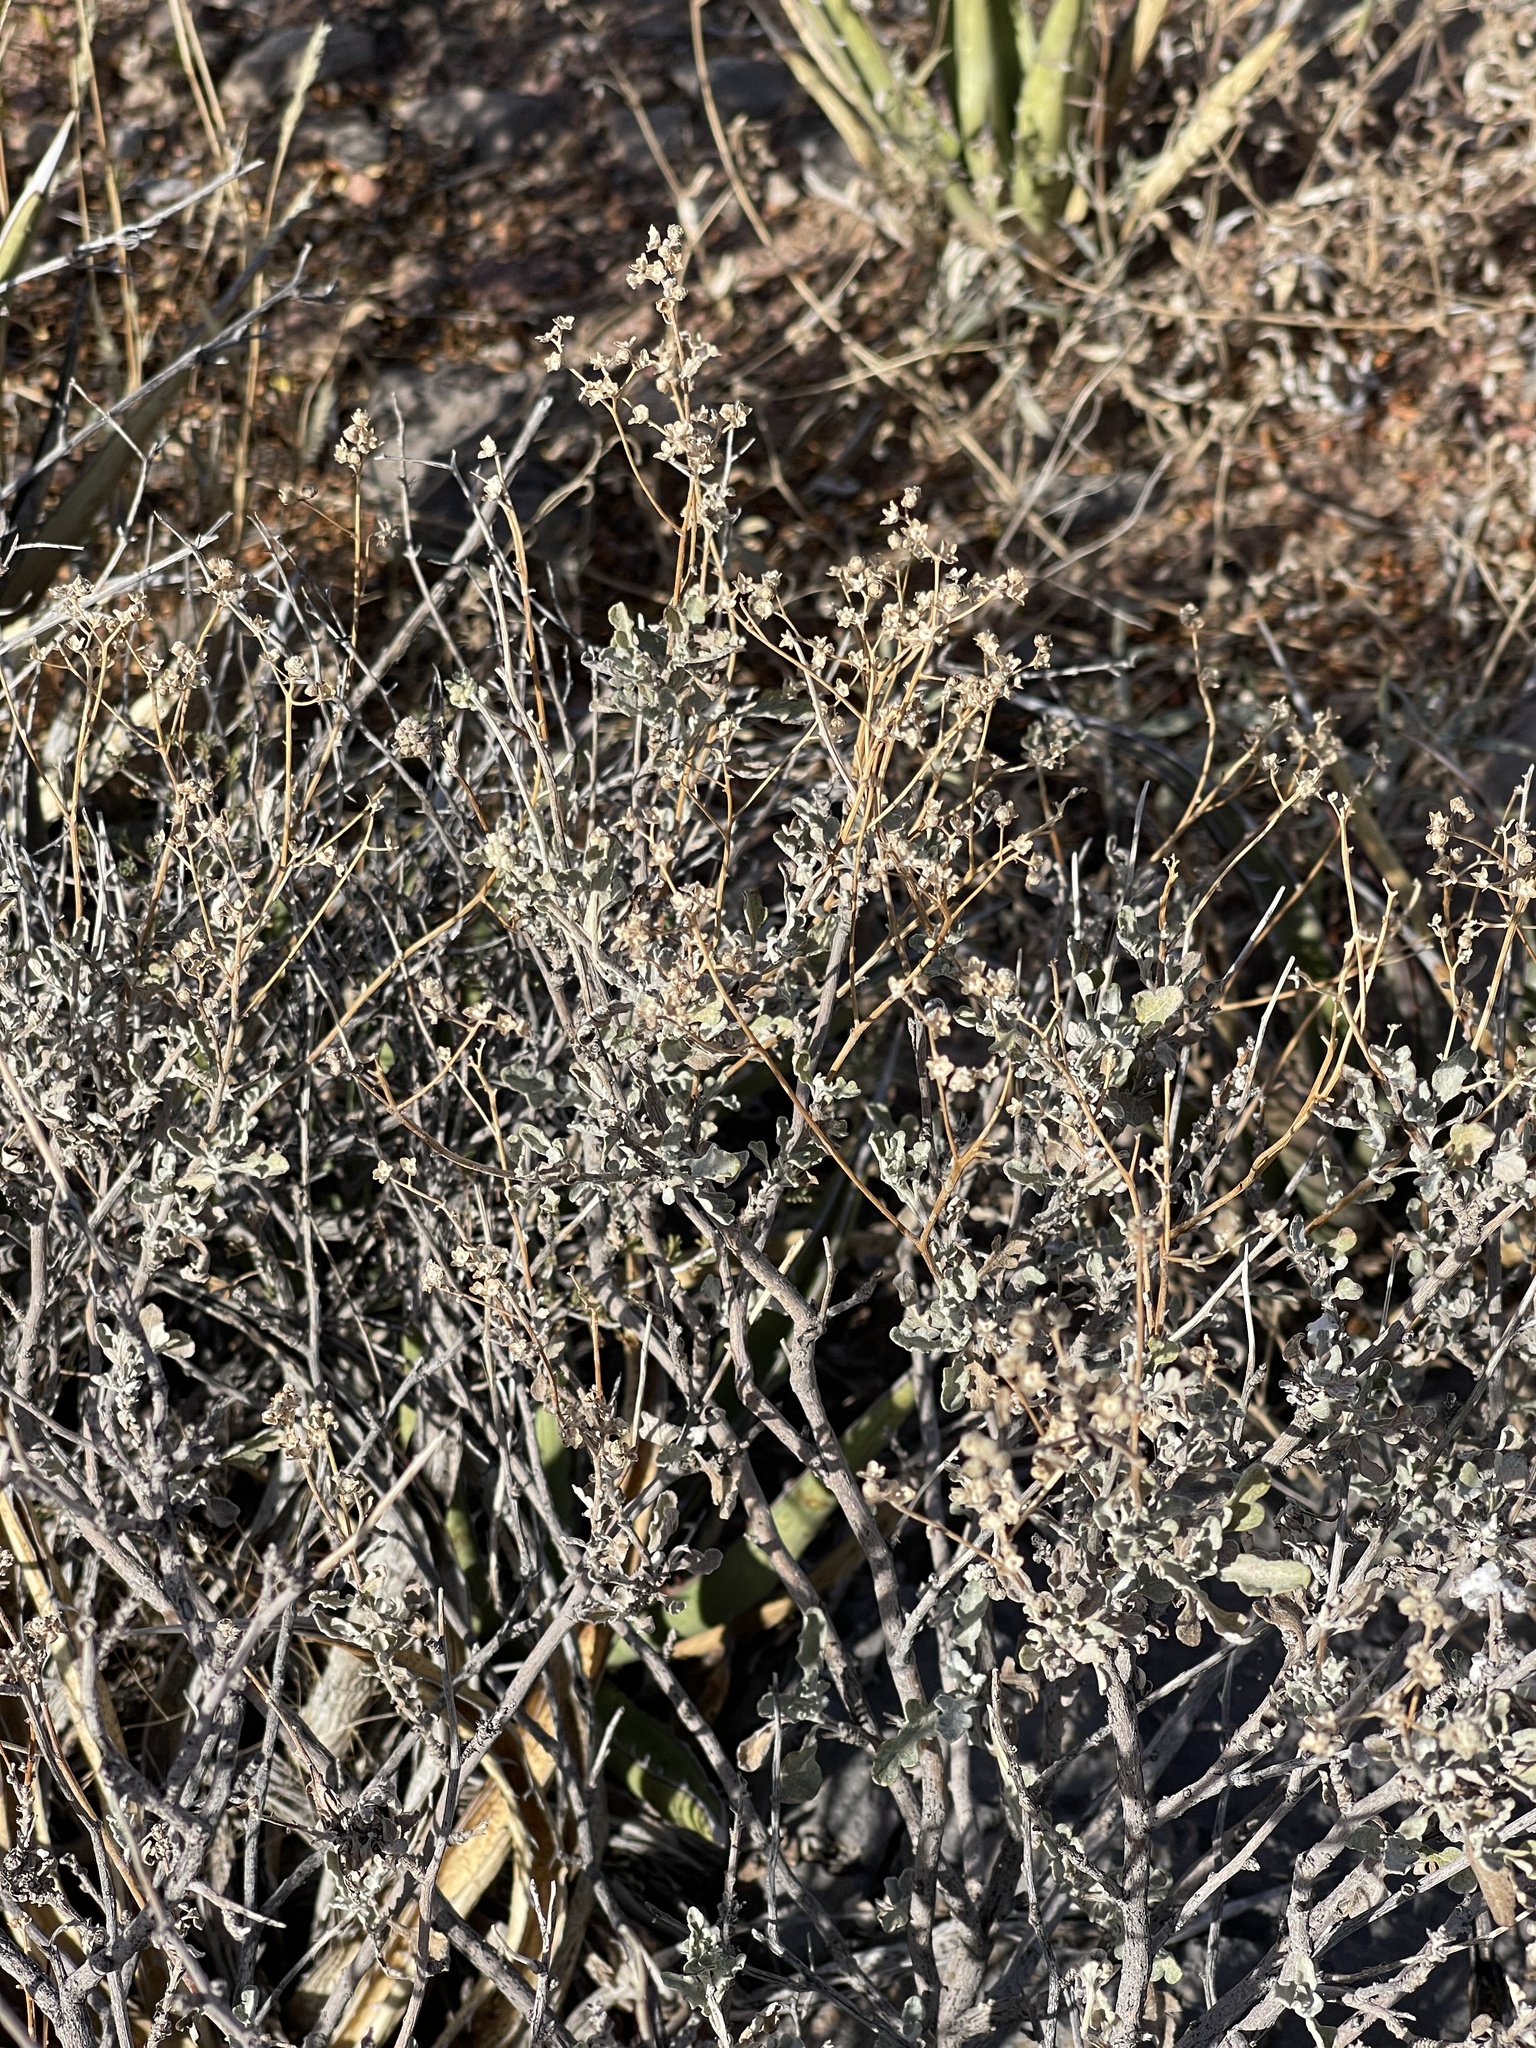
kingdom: Plantae
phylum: Tracheophyta
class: Magnoliopsida
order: Asterales
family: Asteraceae
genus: Parthenium
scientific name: Parthenium incanum
